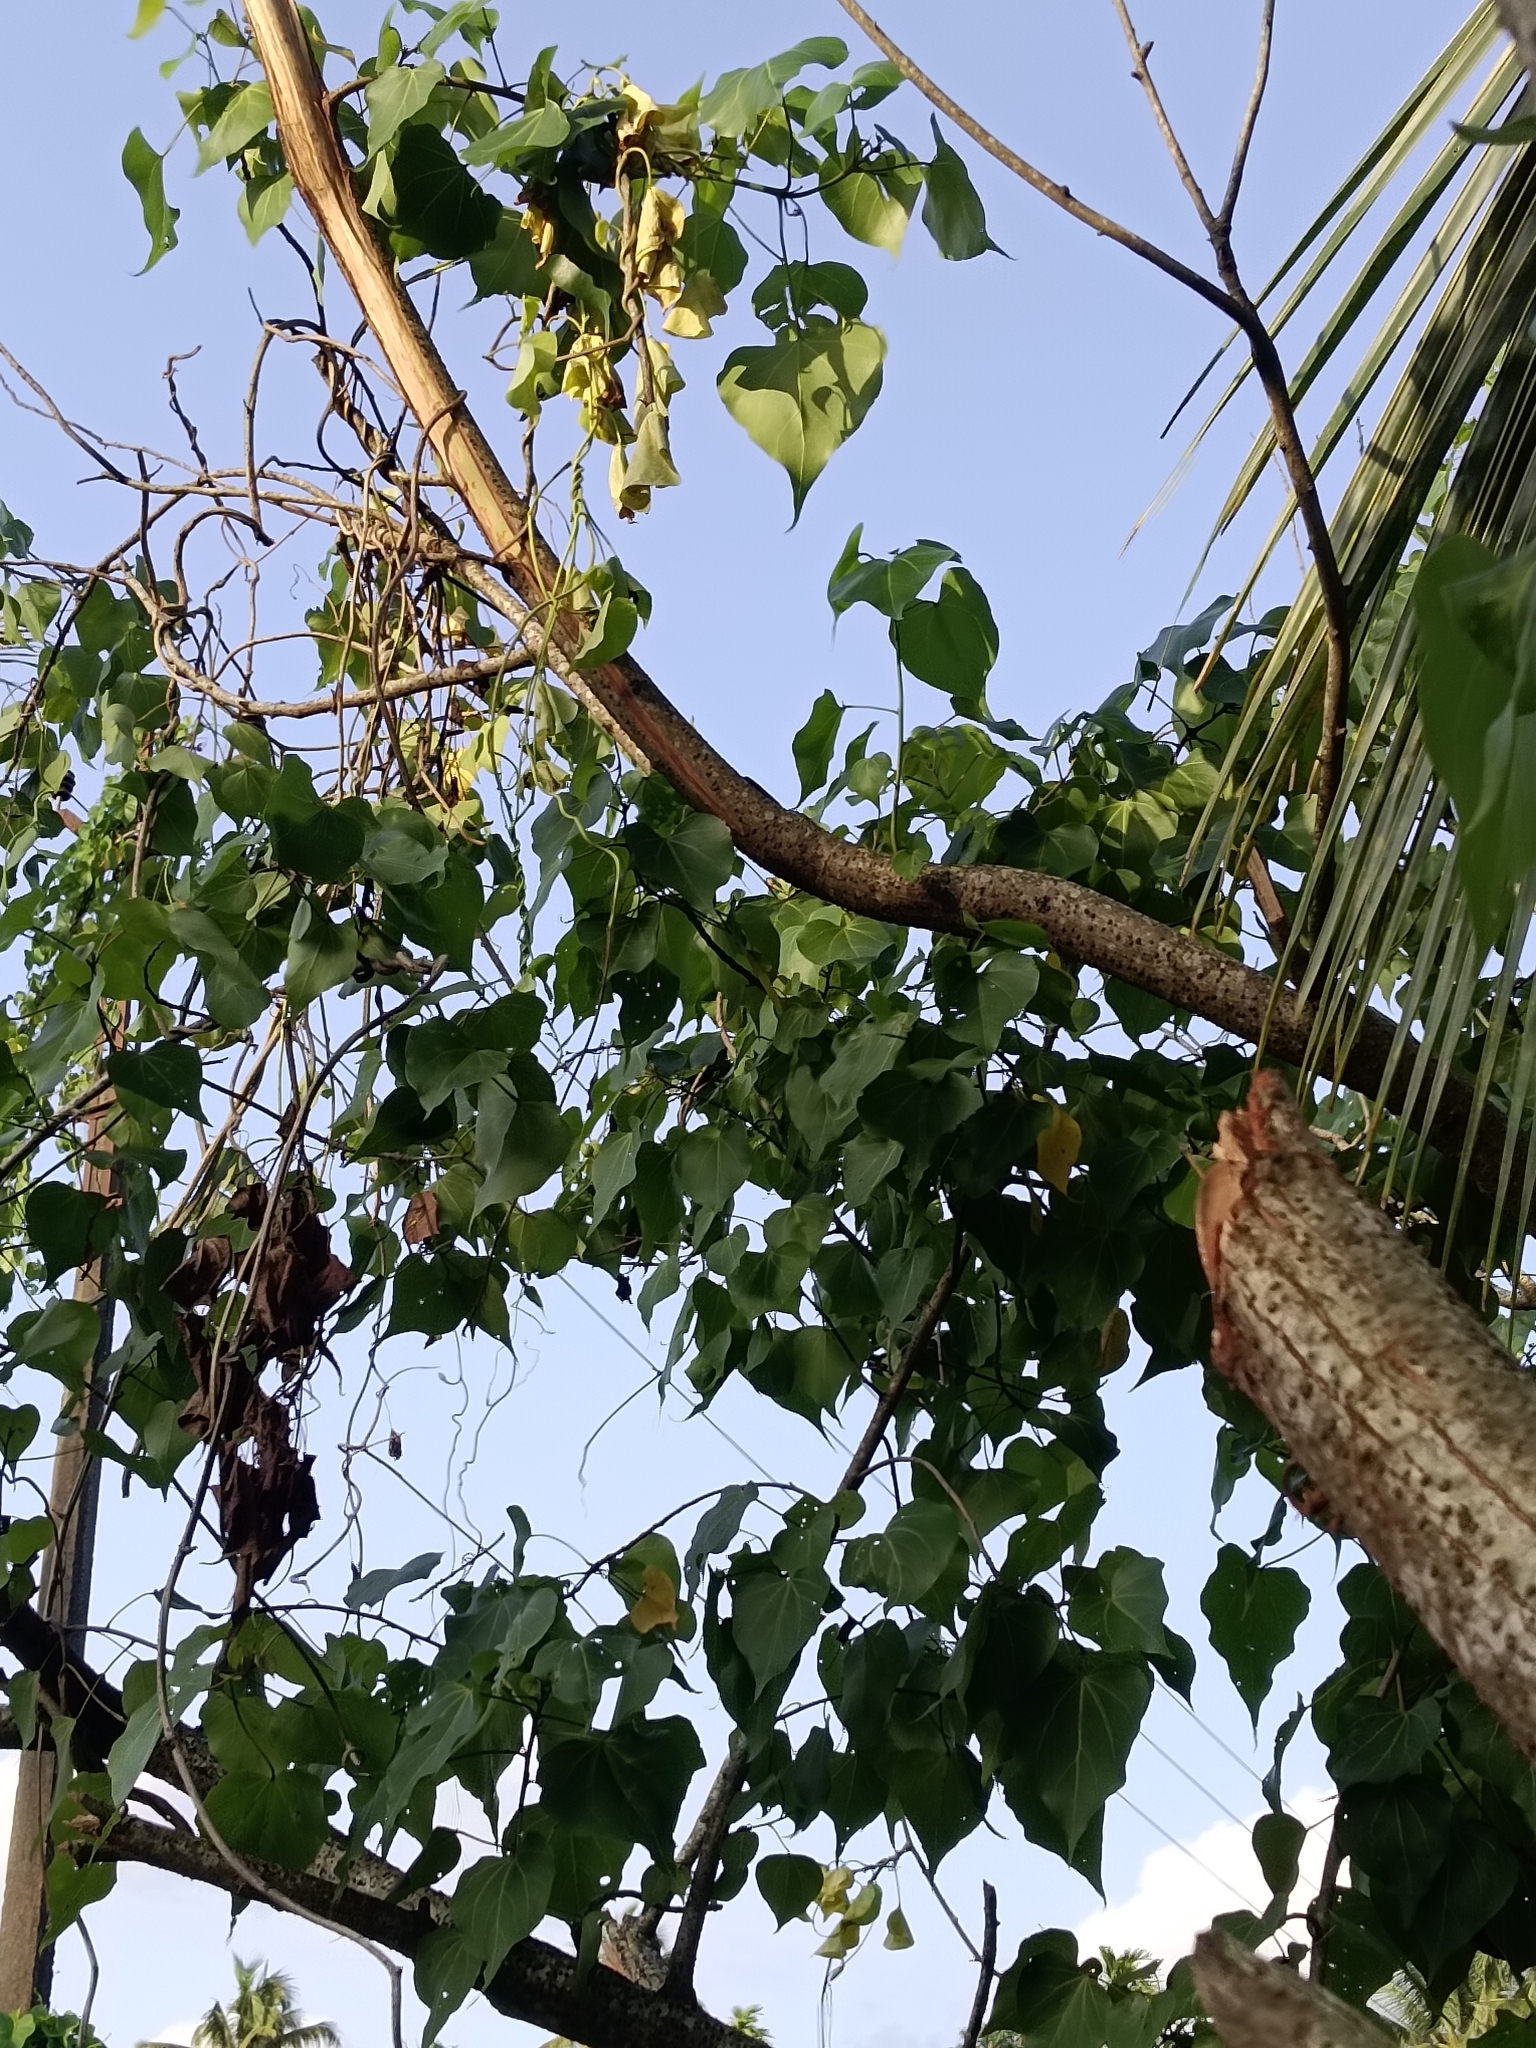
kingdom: Plantae
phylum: Tracheophyta
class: Magnoliopsida
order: Malvales
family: Malvaceae
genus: Thespesia
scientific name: Thespesia populnea
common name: Seaside mahoe
